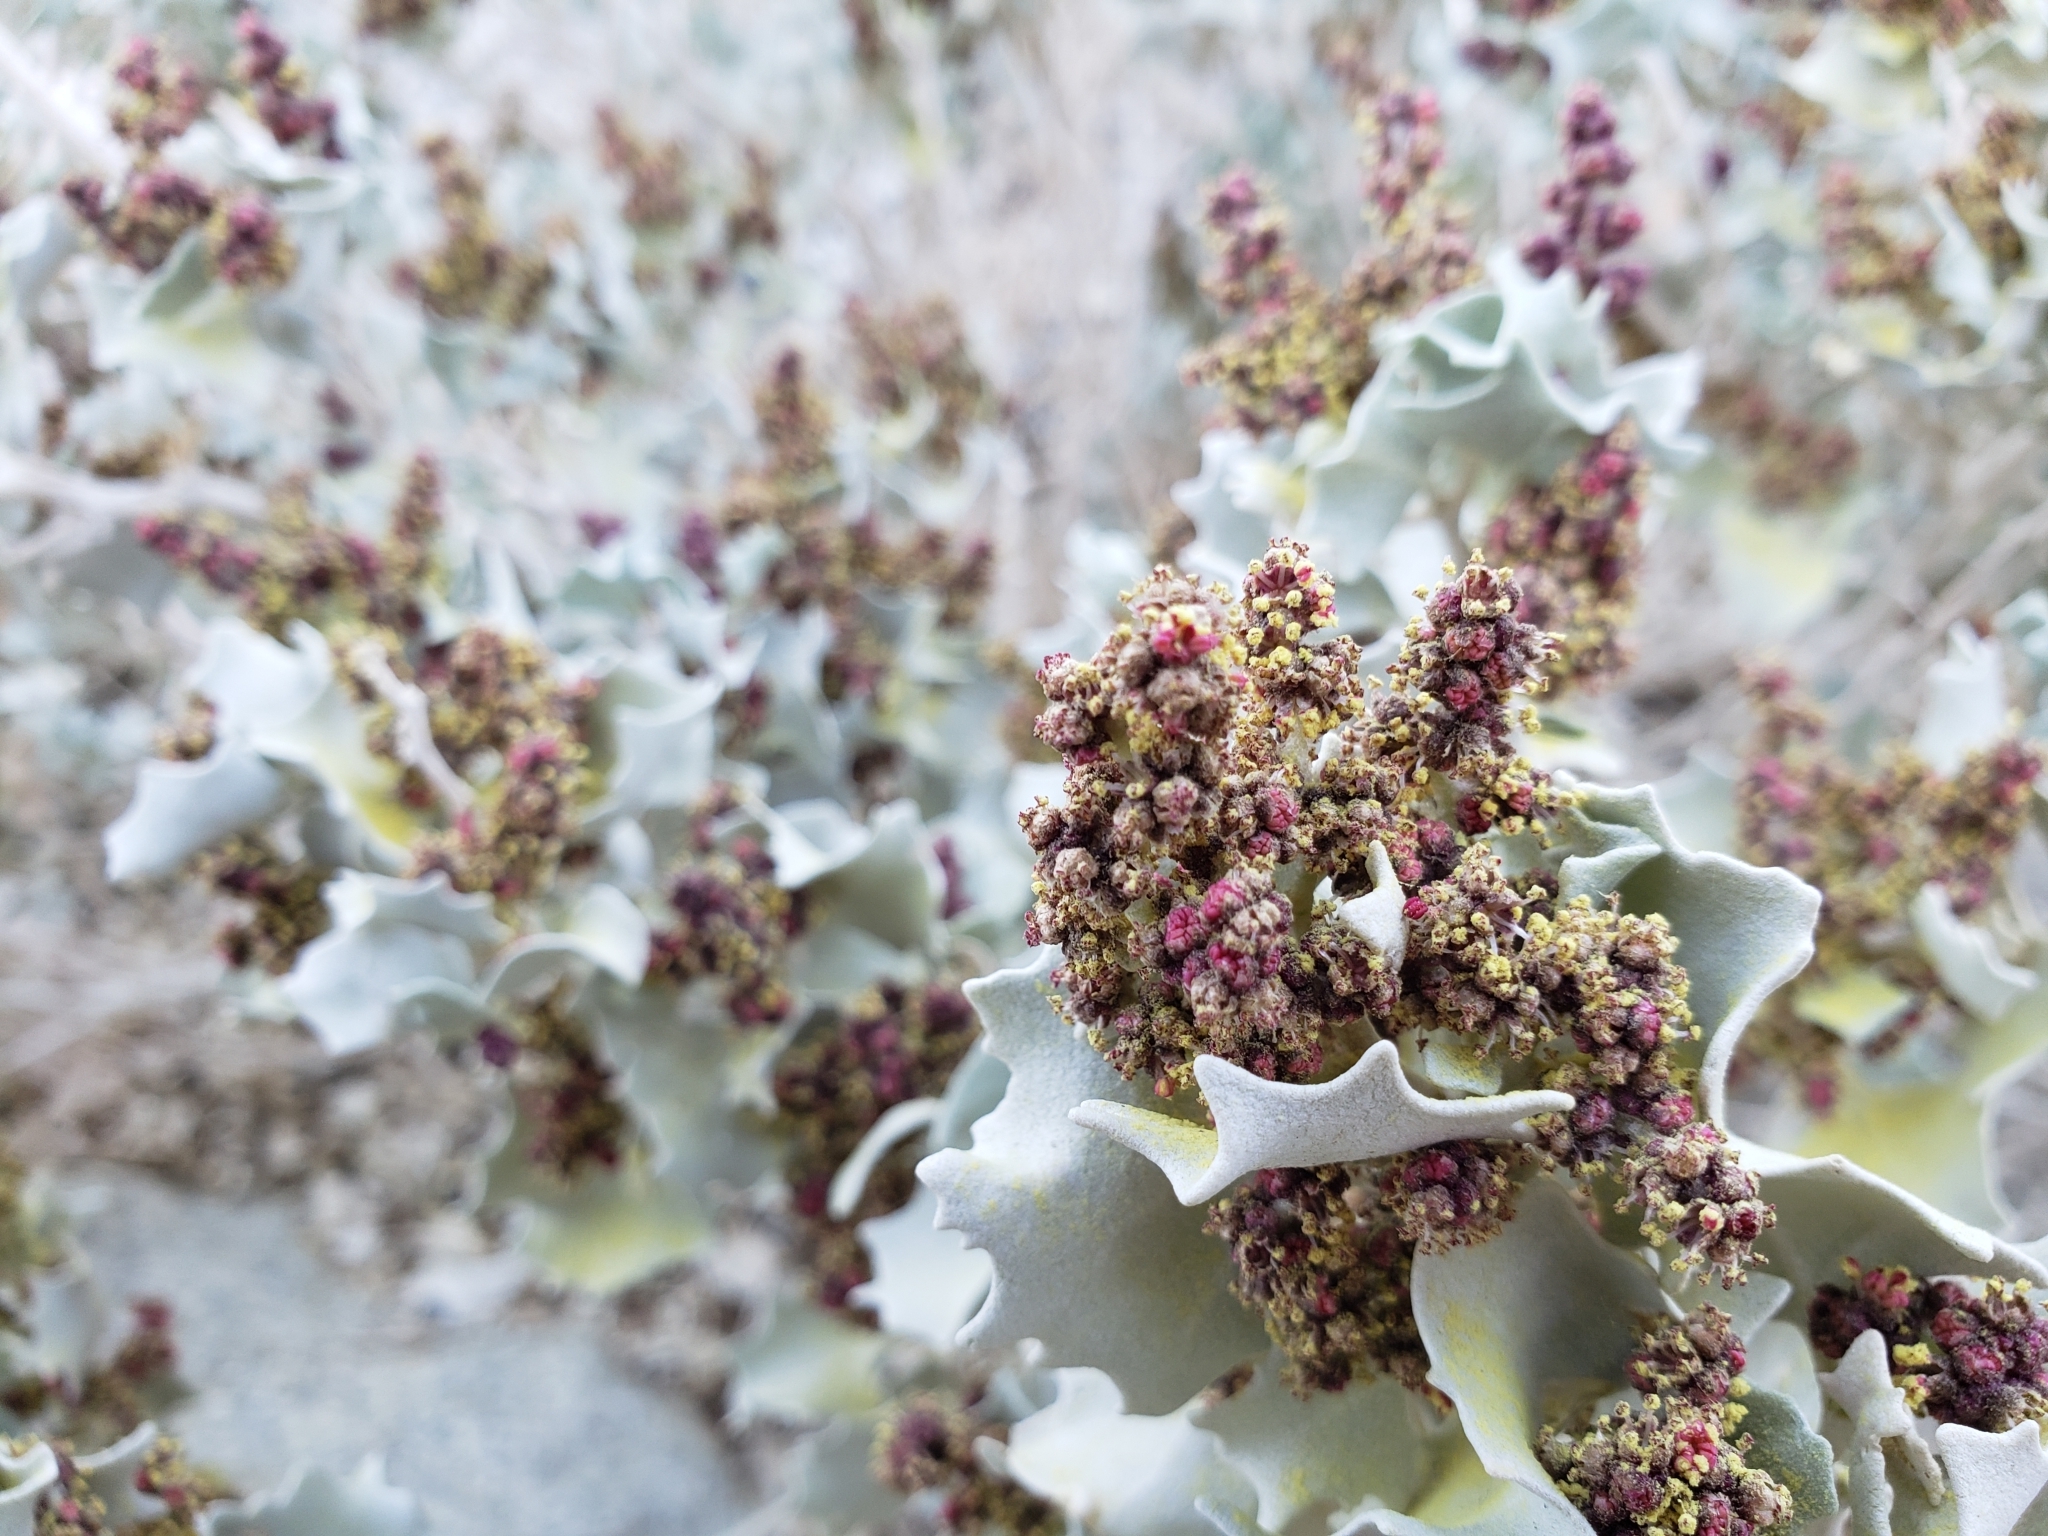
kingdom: Plantae
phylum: Tracheophyta
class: Magnoliopsida
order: Caryophyllales
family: Amaranthaceae
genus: Atriplex
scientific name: Atriplex hymenelytra
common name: Desert-holly
